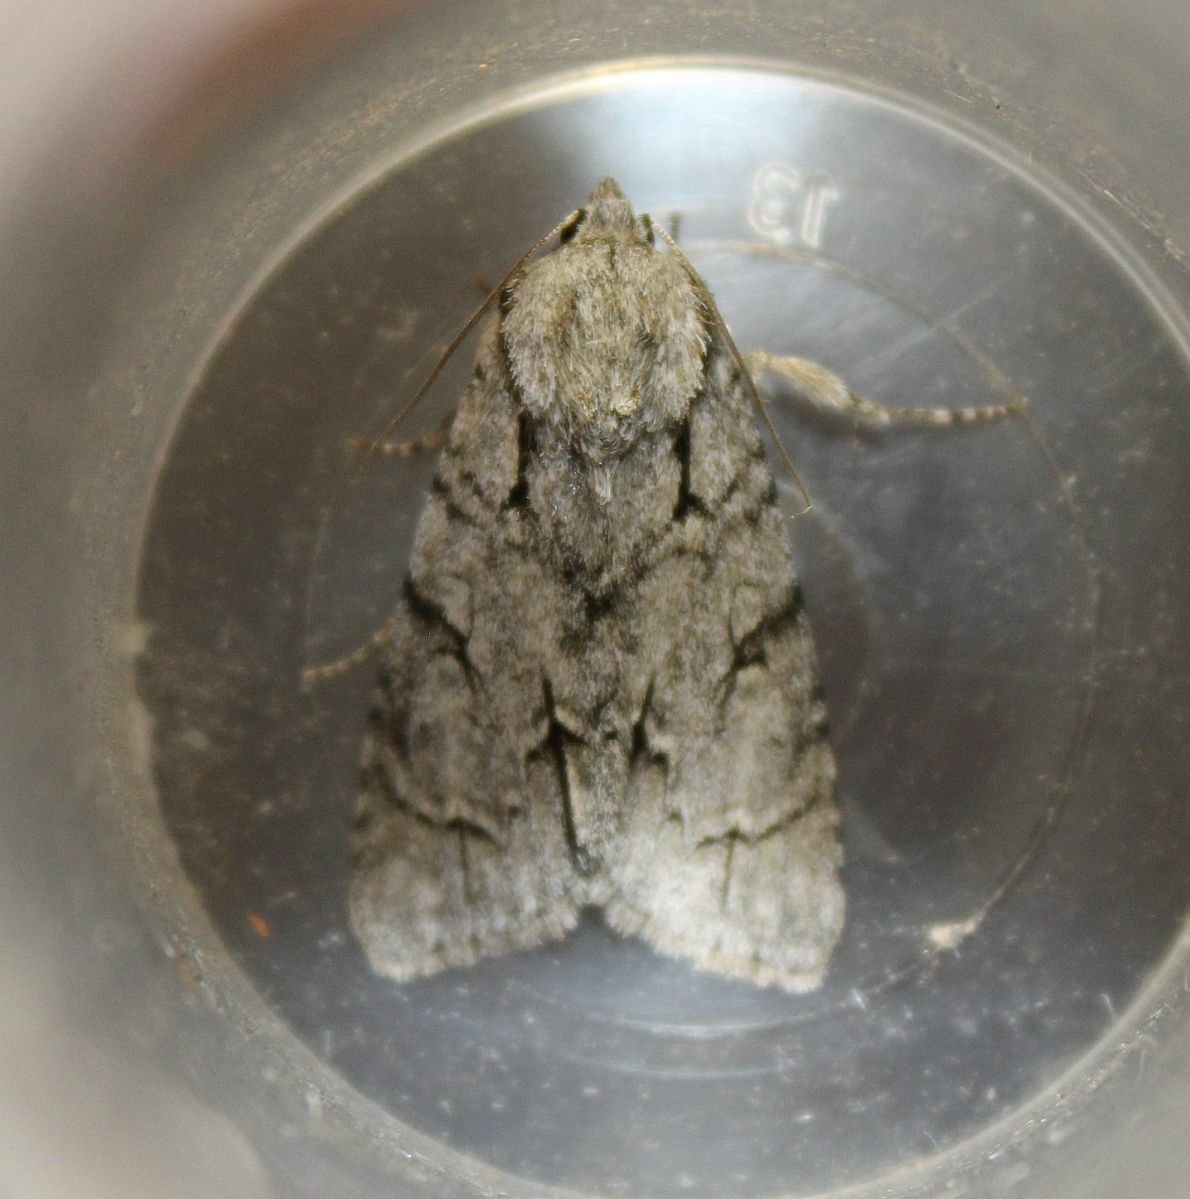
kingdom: Animalia
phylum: Arthropoda
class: Insecta
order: Lepidoptera
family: Noctuidae
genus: Acronicta
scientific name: Acronicta
